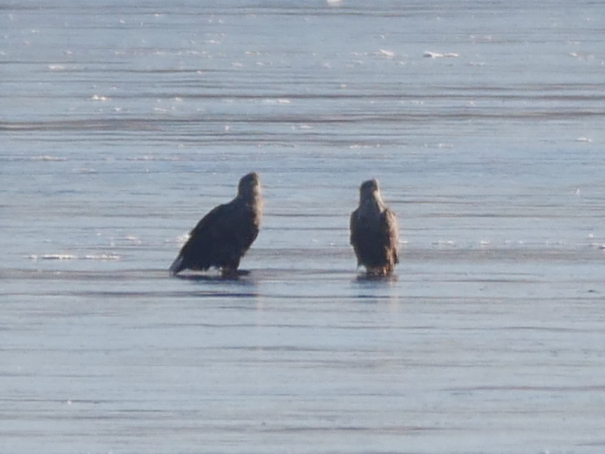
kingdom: Animalia
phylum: Chordata
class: Aves
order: Accipitriformes
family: Accipitridae
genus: Haliaeetus
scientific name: Haliaeetus albicilla
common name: White-tailed eagle
